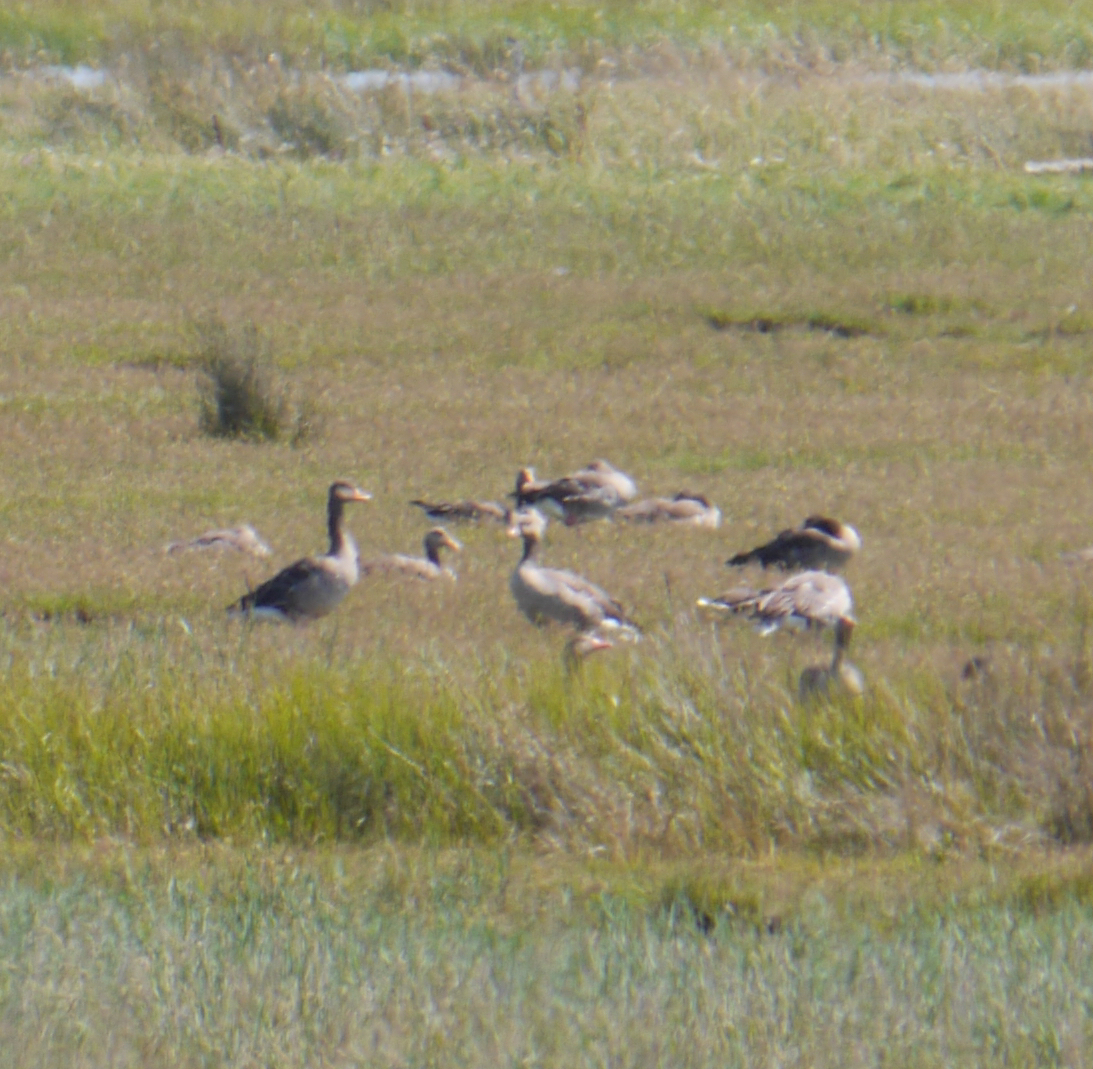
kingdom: Animalia
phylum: Chordata
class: Aves
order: Anseriformes
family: Anatidae
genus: Anser
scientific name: Anser anser
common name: Greylag goose
